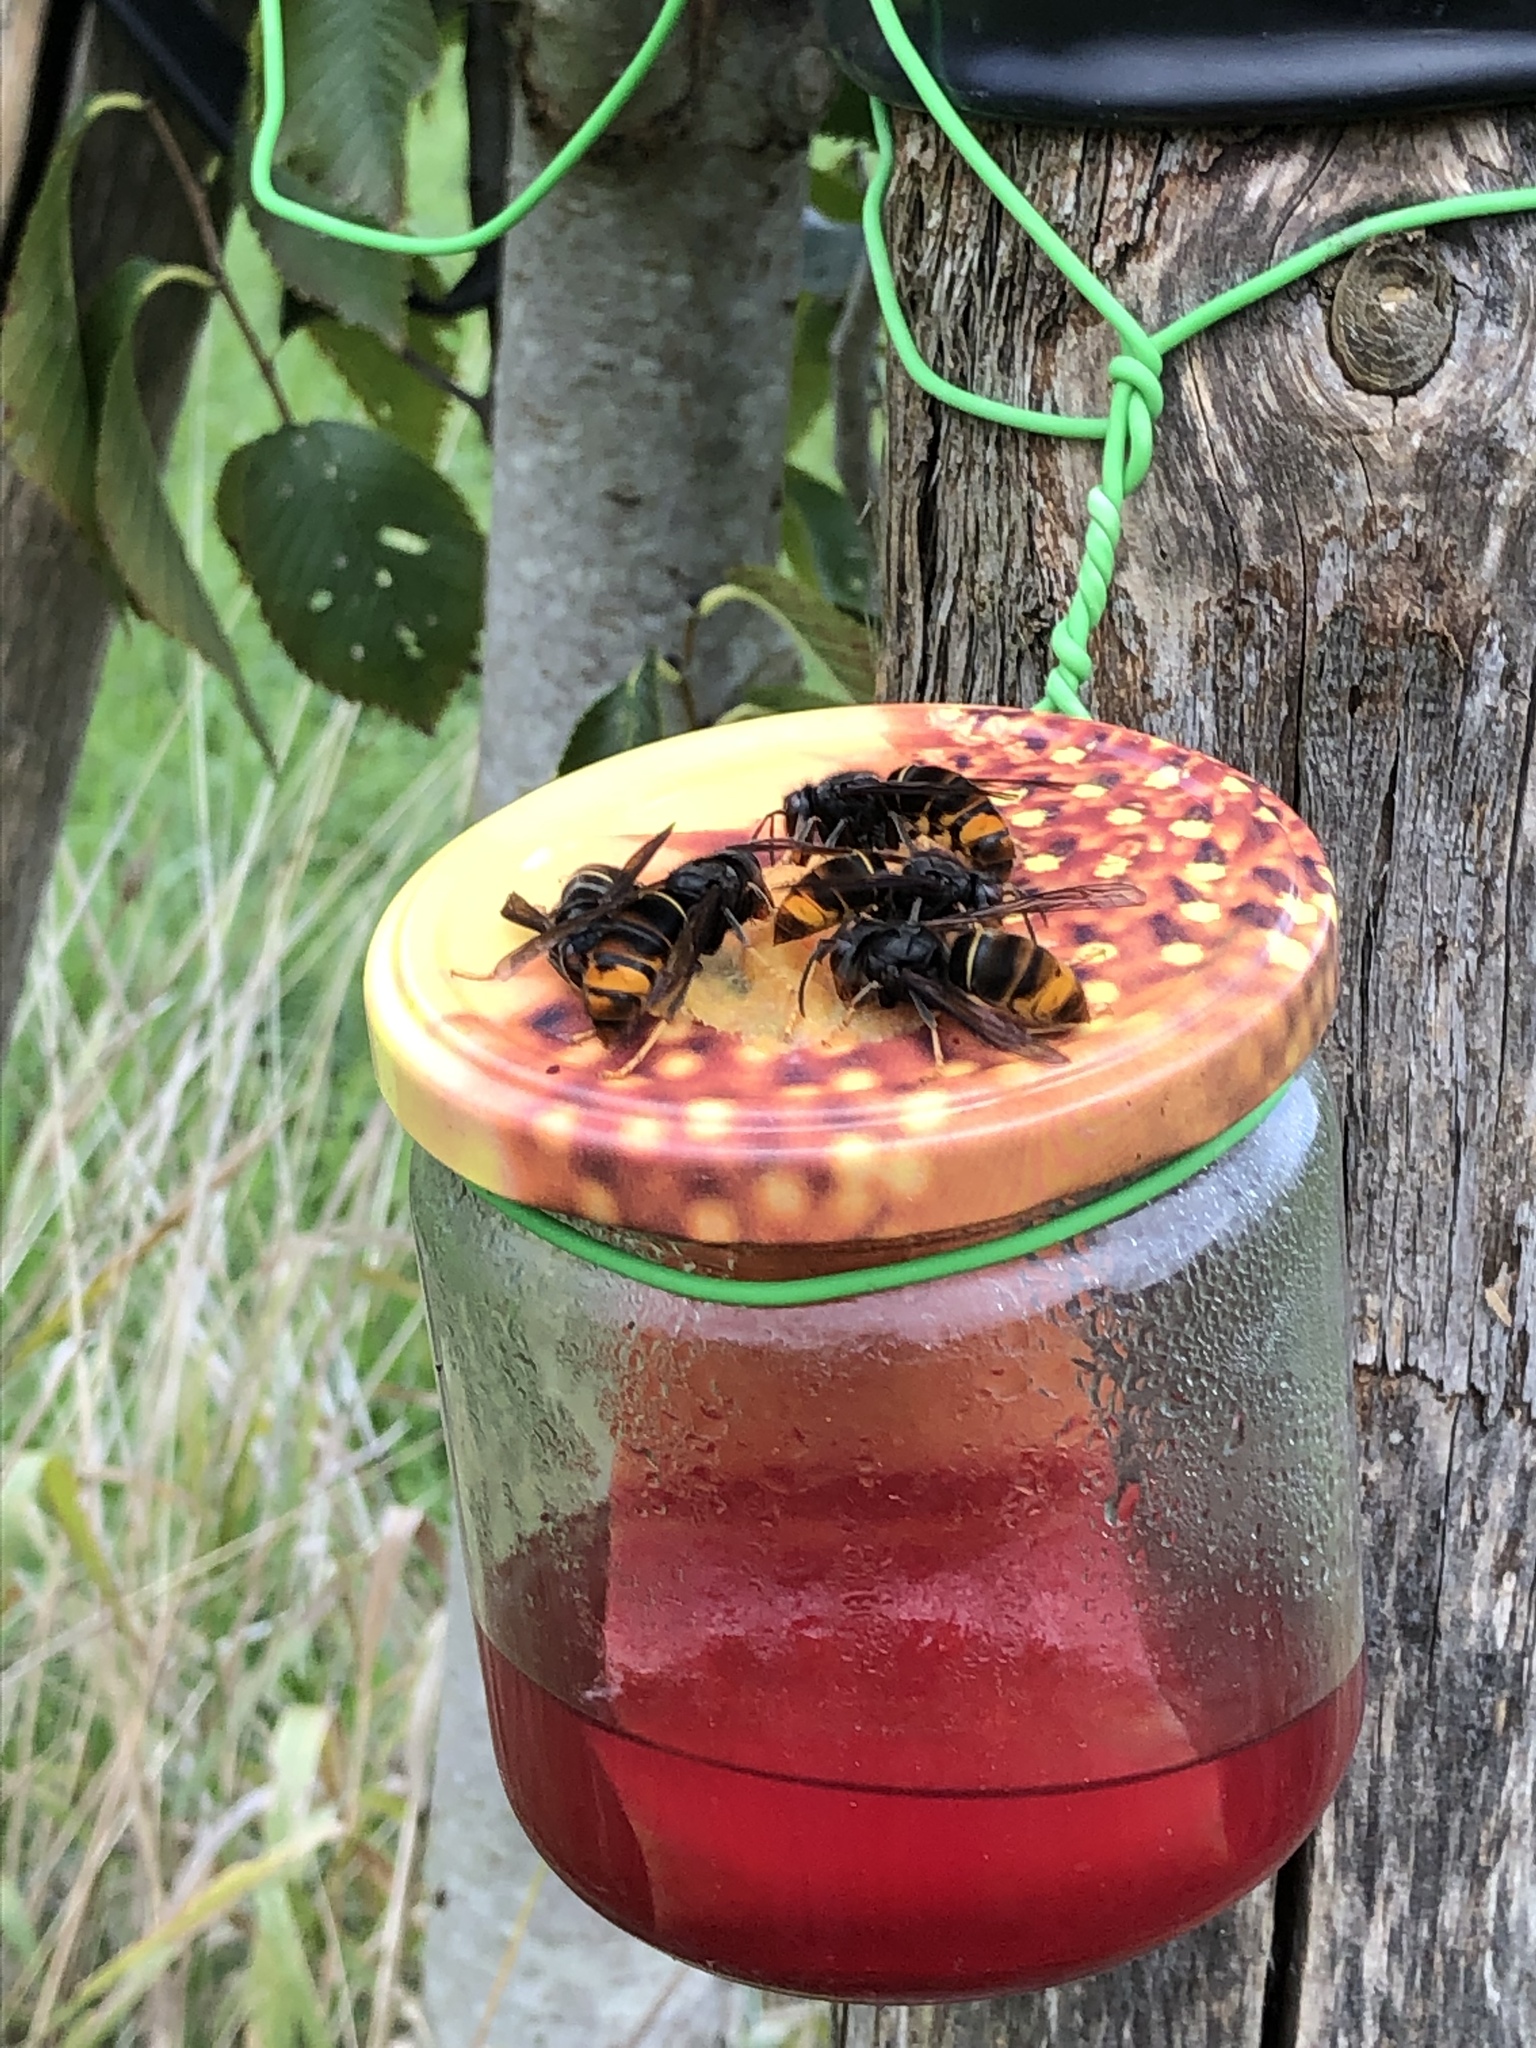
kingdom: Animalia
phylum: Arthropoda
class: Insecta
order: Hymenoptera
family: Vespidae
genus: Vespa
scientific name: Vespa velutina
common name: Asian hornet
